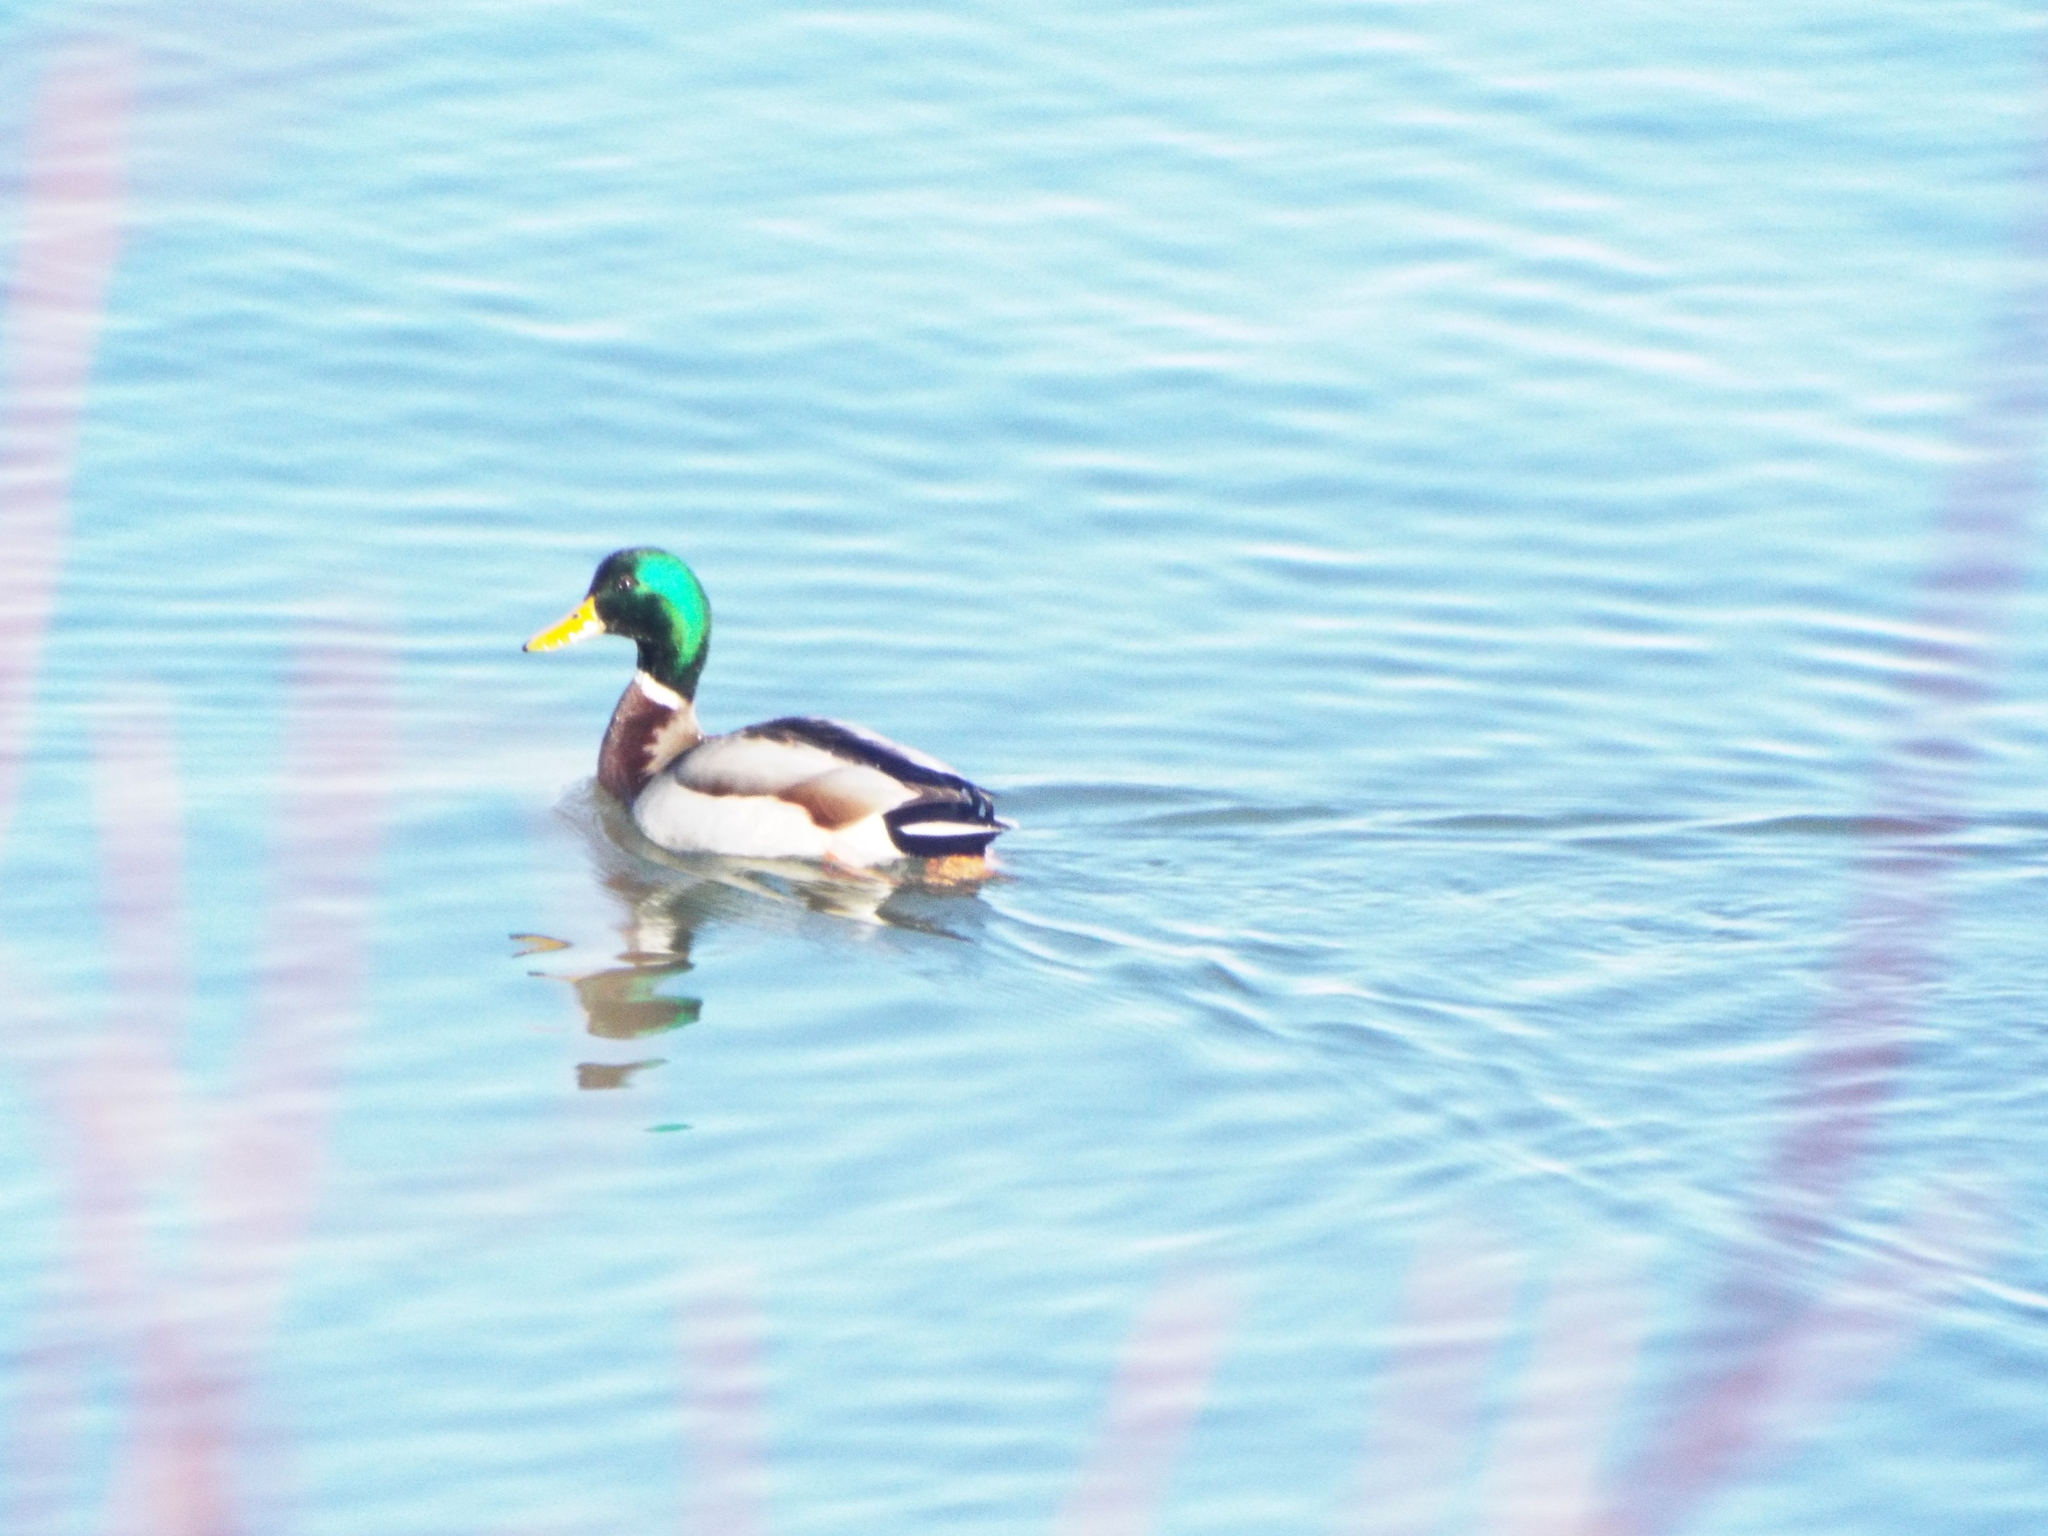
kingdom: Animalia
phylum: Chordata
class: Aves
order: Anseriformes
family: Anatidae
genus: Anas
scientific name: Anas platyrhynchos
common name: Mallard
